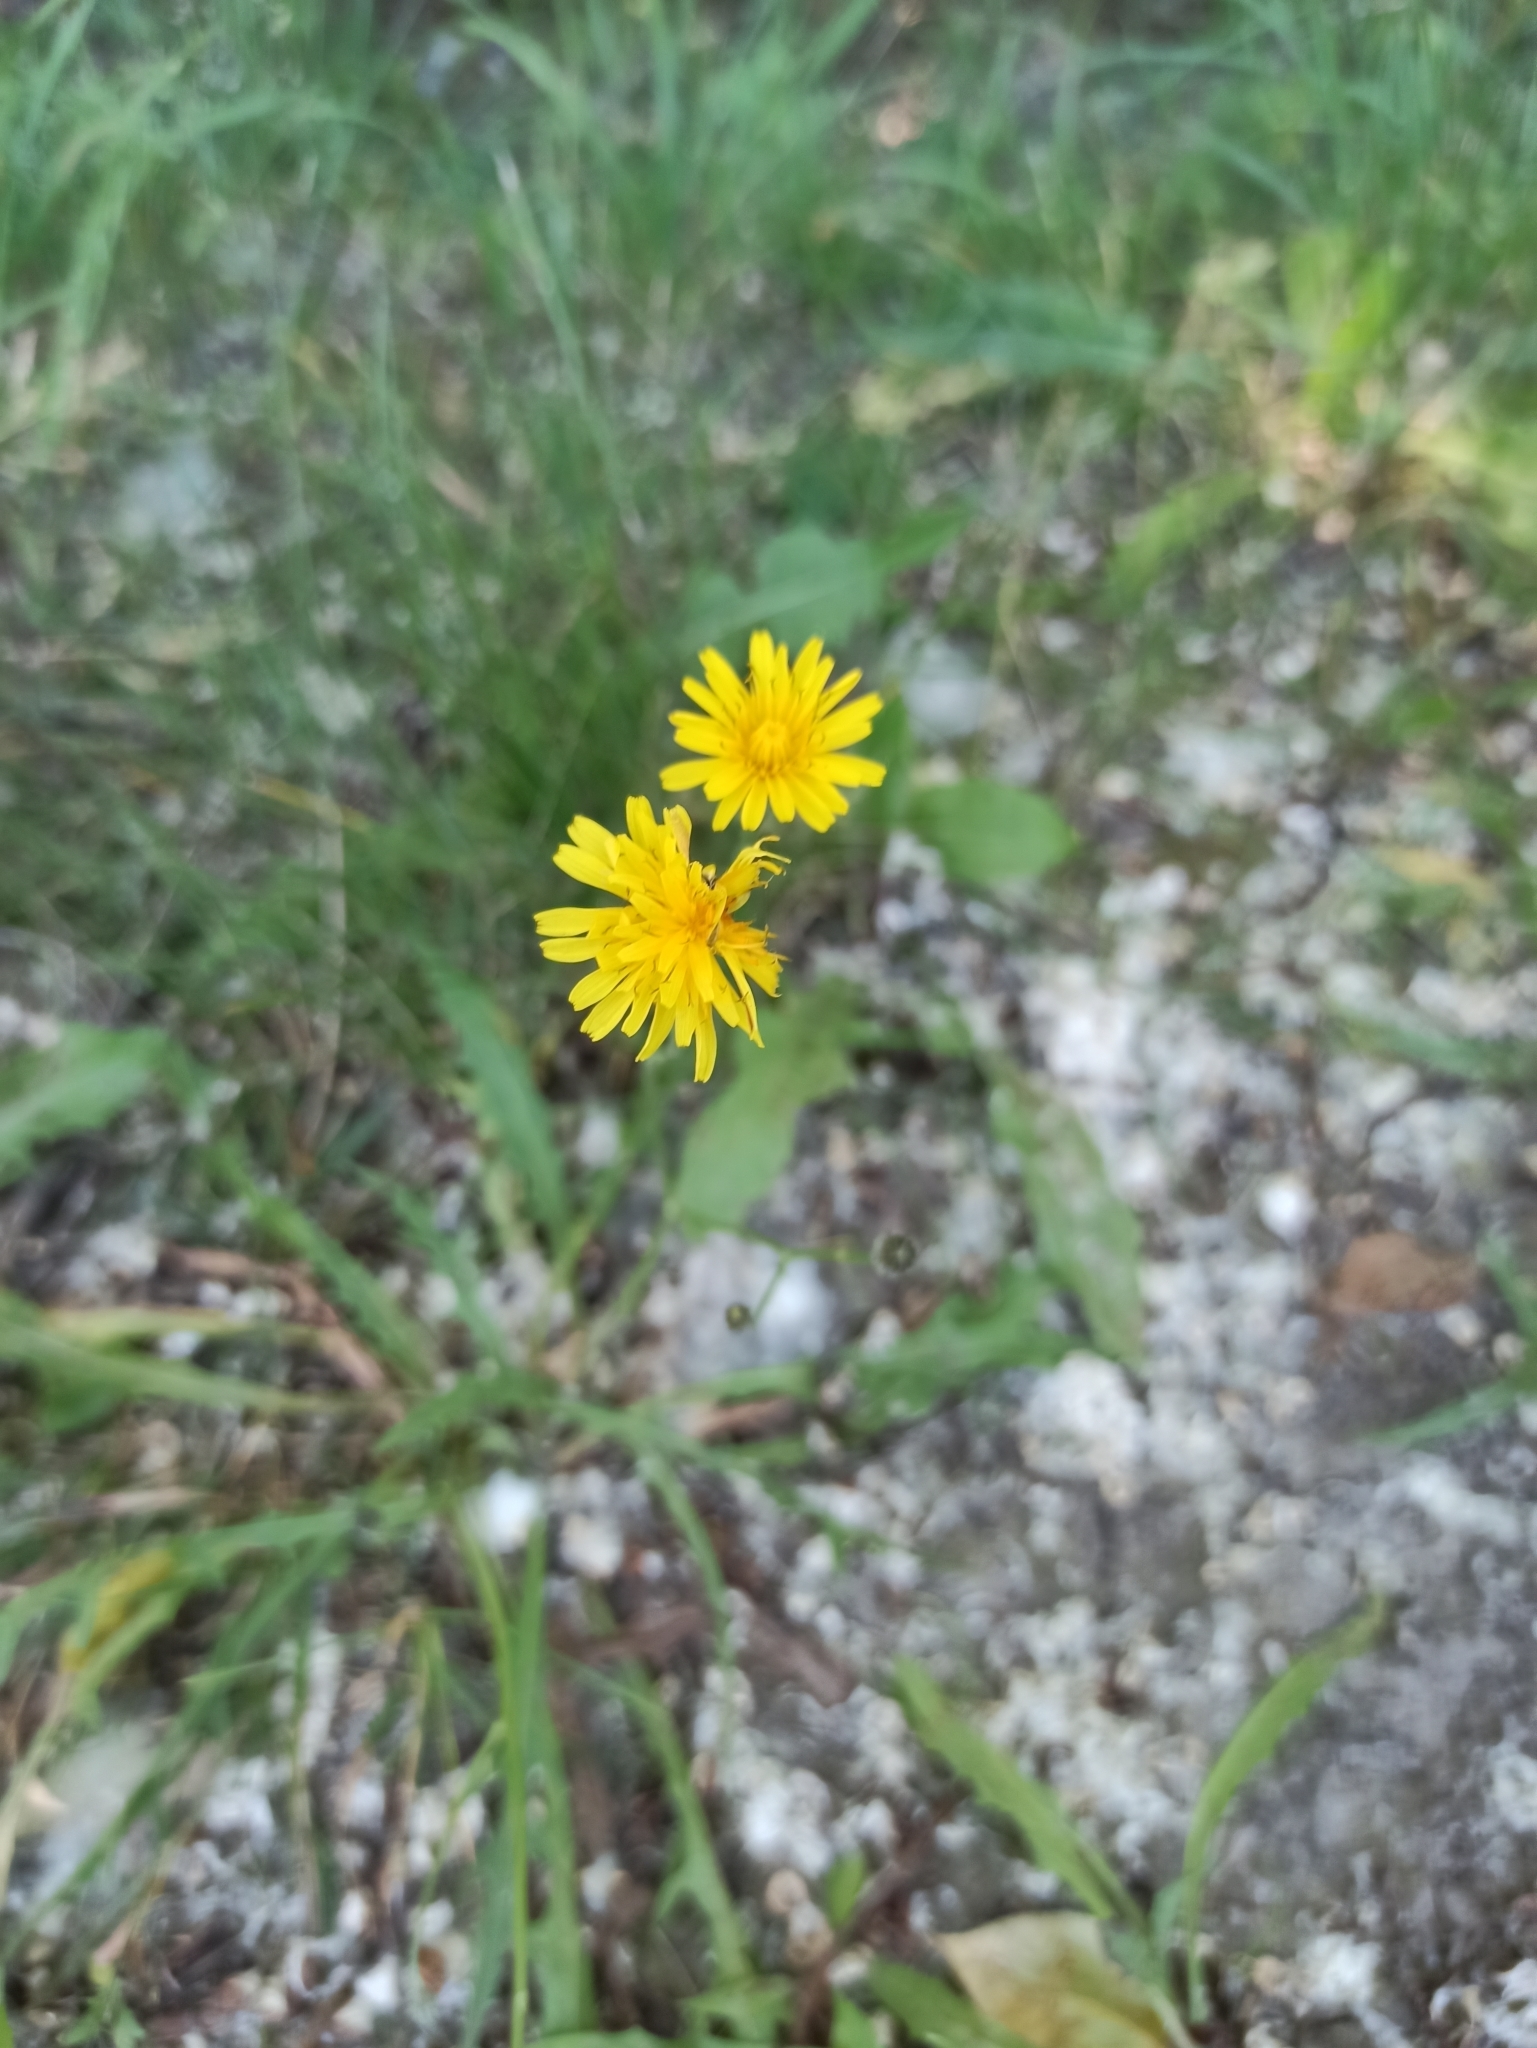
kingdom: Plantae
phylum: Tracheophyta
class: Magnoliopsida
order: Asterales
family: Asteraceae
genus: Scorzoneroides
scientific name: Scorzoneroides autumnalis
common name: Autumn hawkbit
